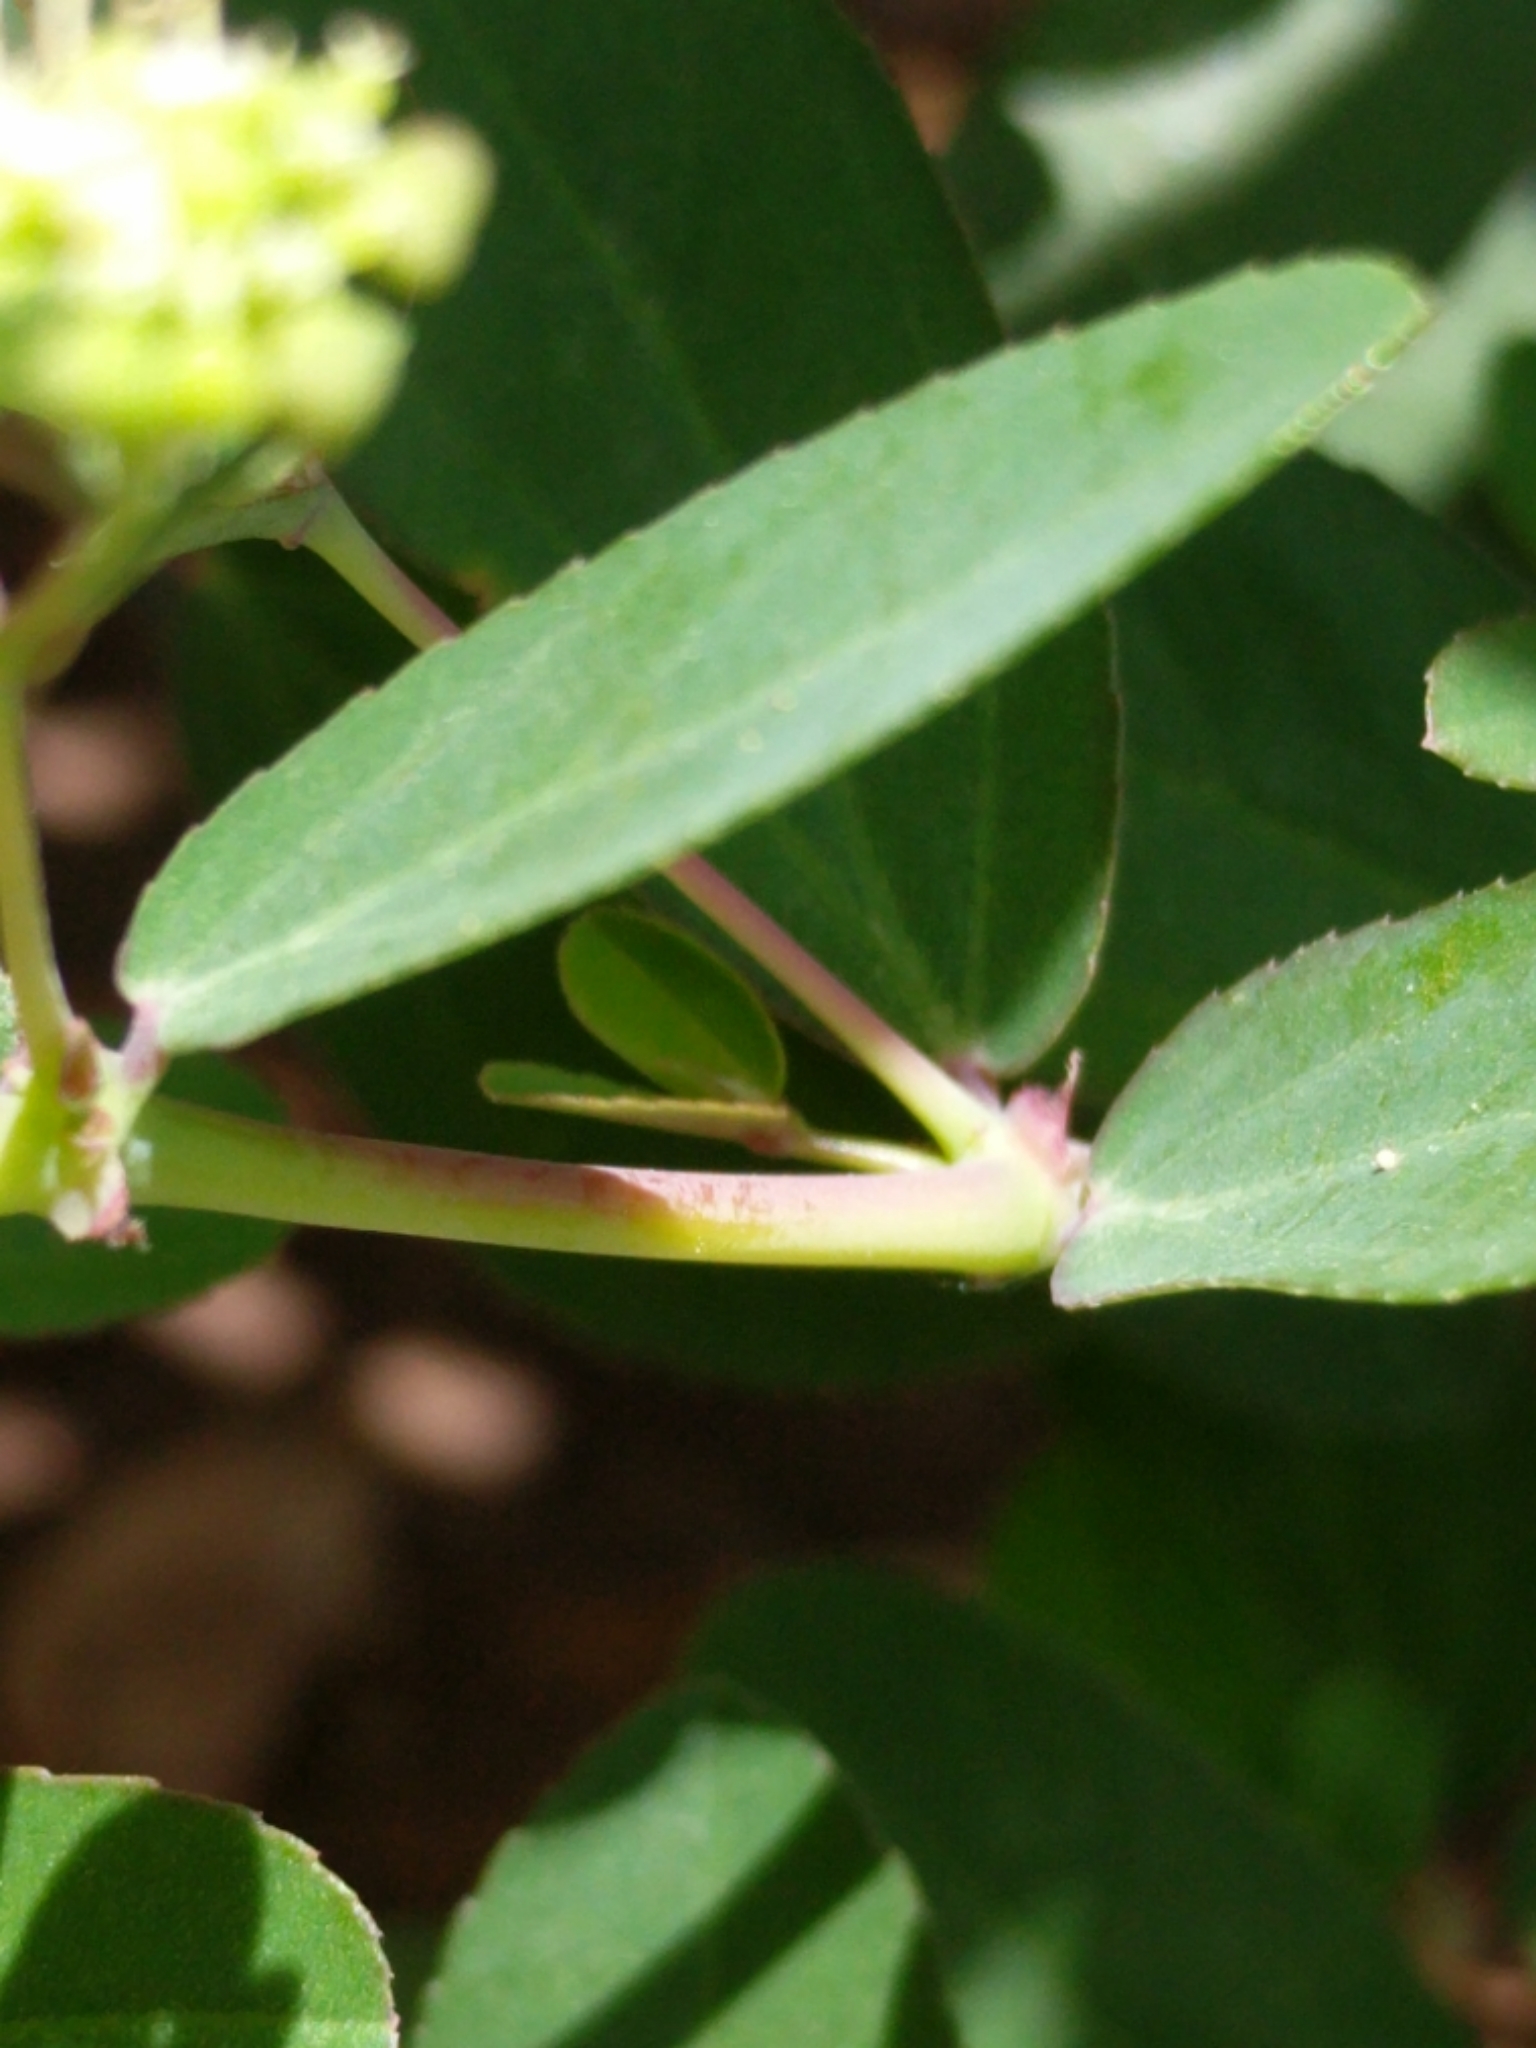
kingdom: Plantae
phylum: Tracheophyta
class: Magnoliopsida
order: Malpighiales
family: Euphorbiaceae
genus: Euphorbia
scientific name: Euphorbia hypericifolia
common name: Graceful sandmat
